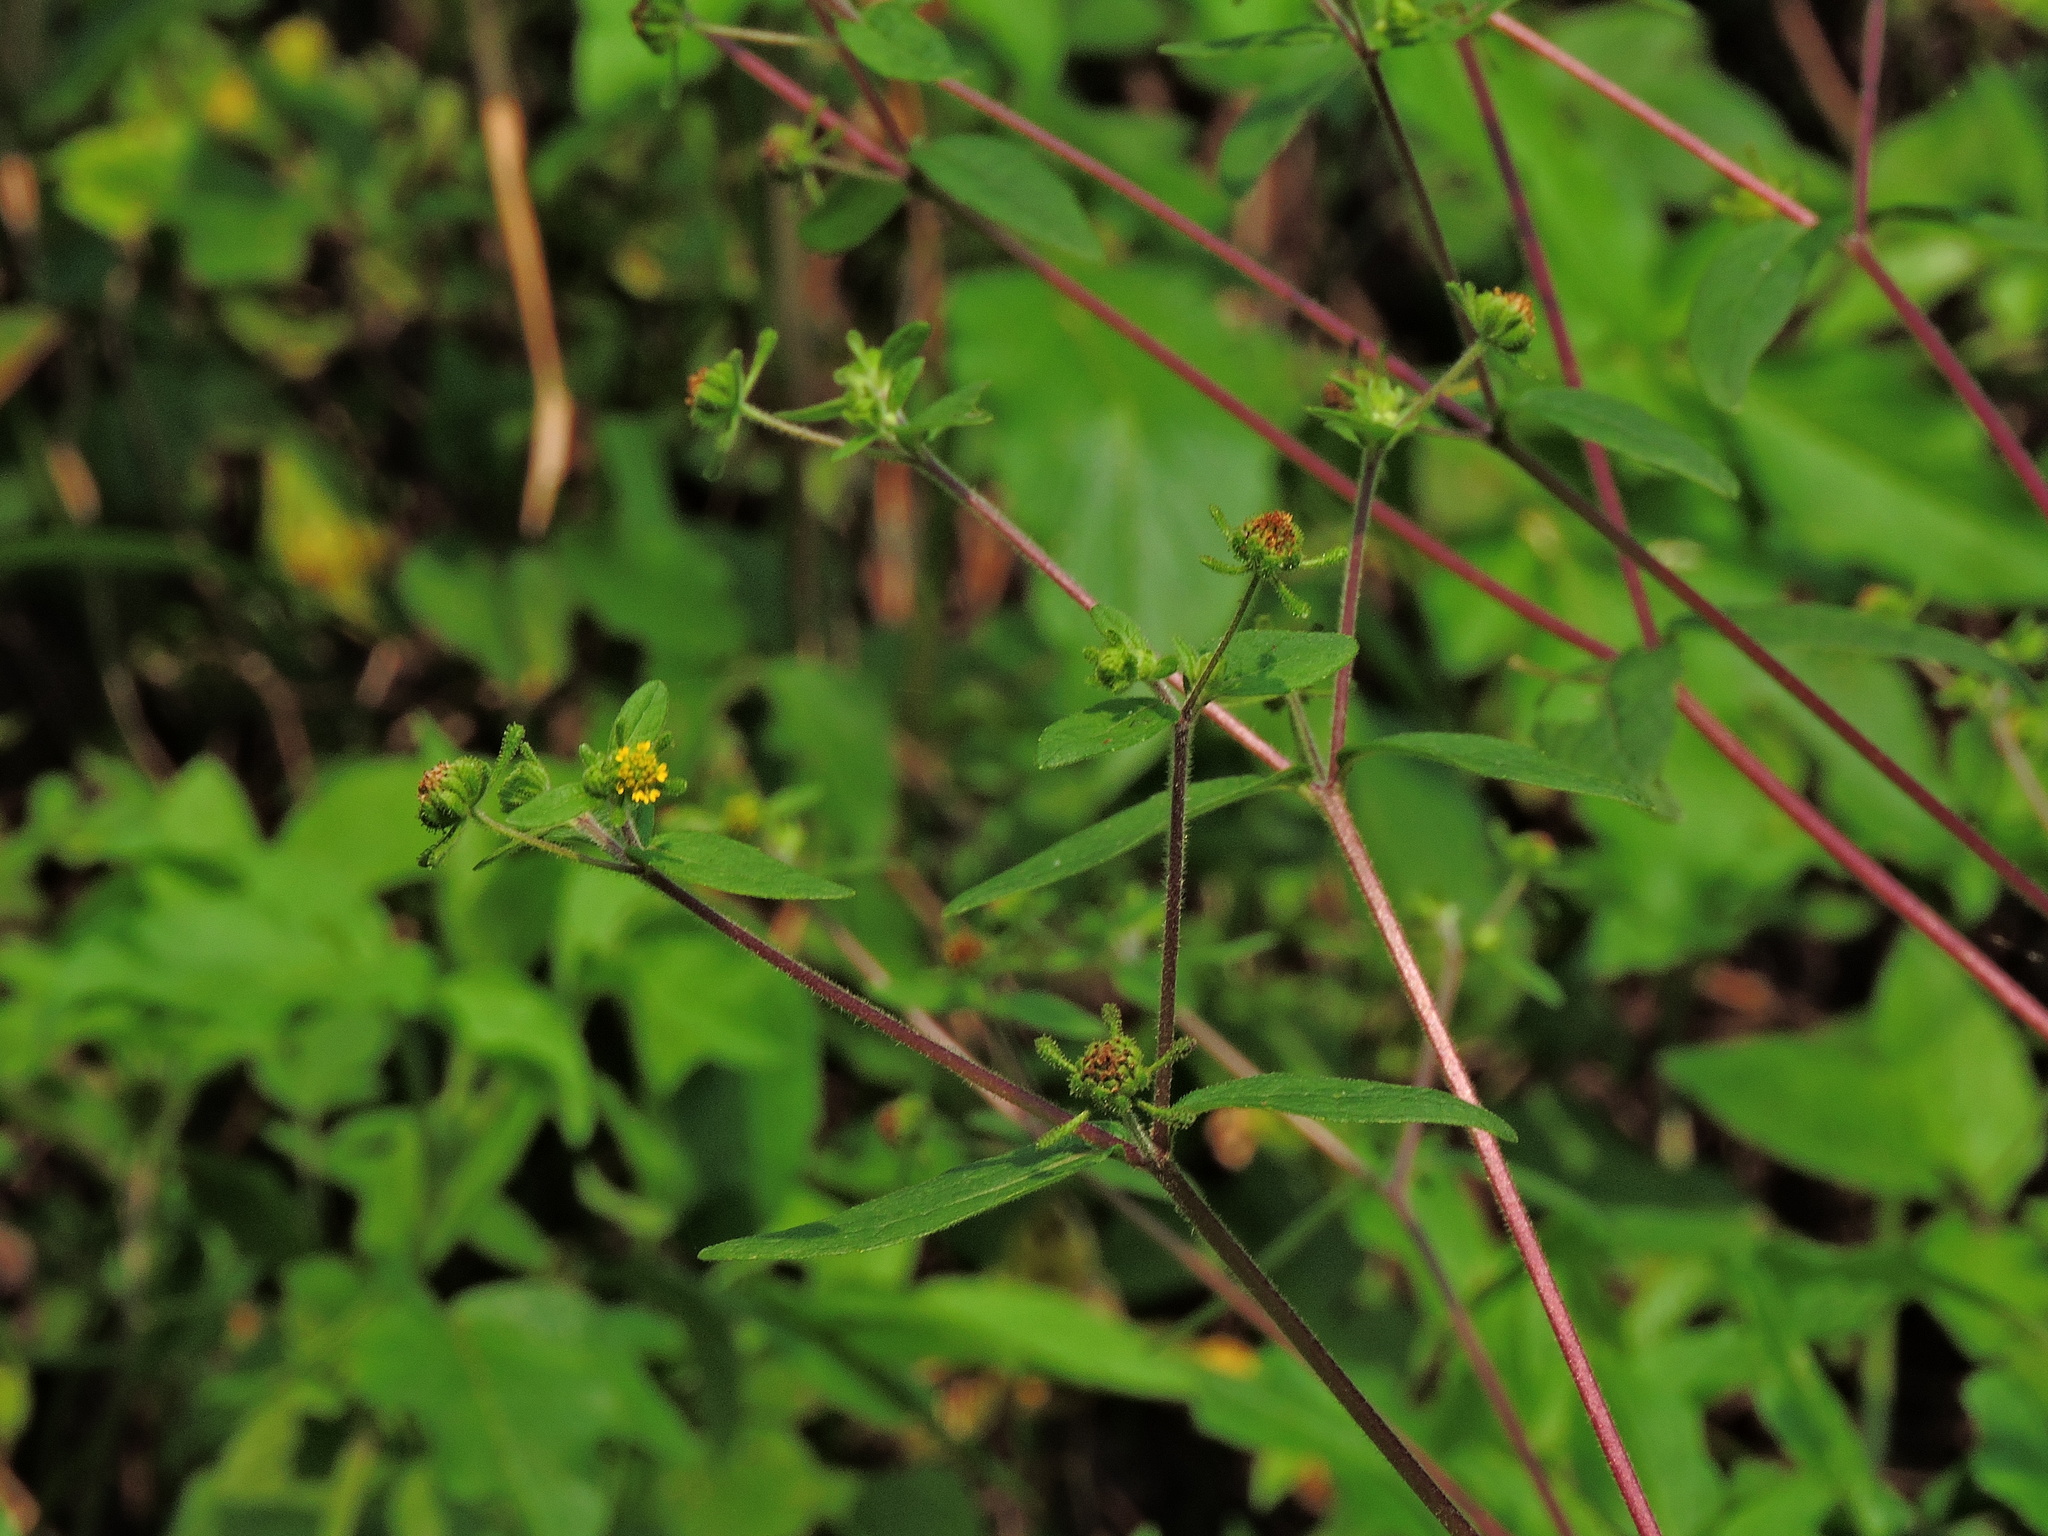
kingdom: Plantae
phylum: Tracheophyta
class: Magnoliopsida
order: Asterales
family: Asteraceae
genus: Sigesbeckia
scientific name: Sigesbeckia orientalis
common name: Eastern st paul's-wort
